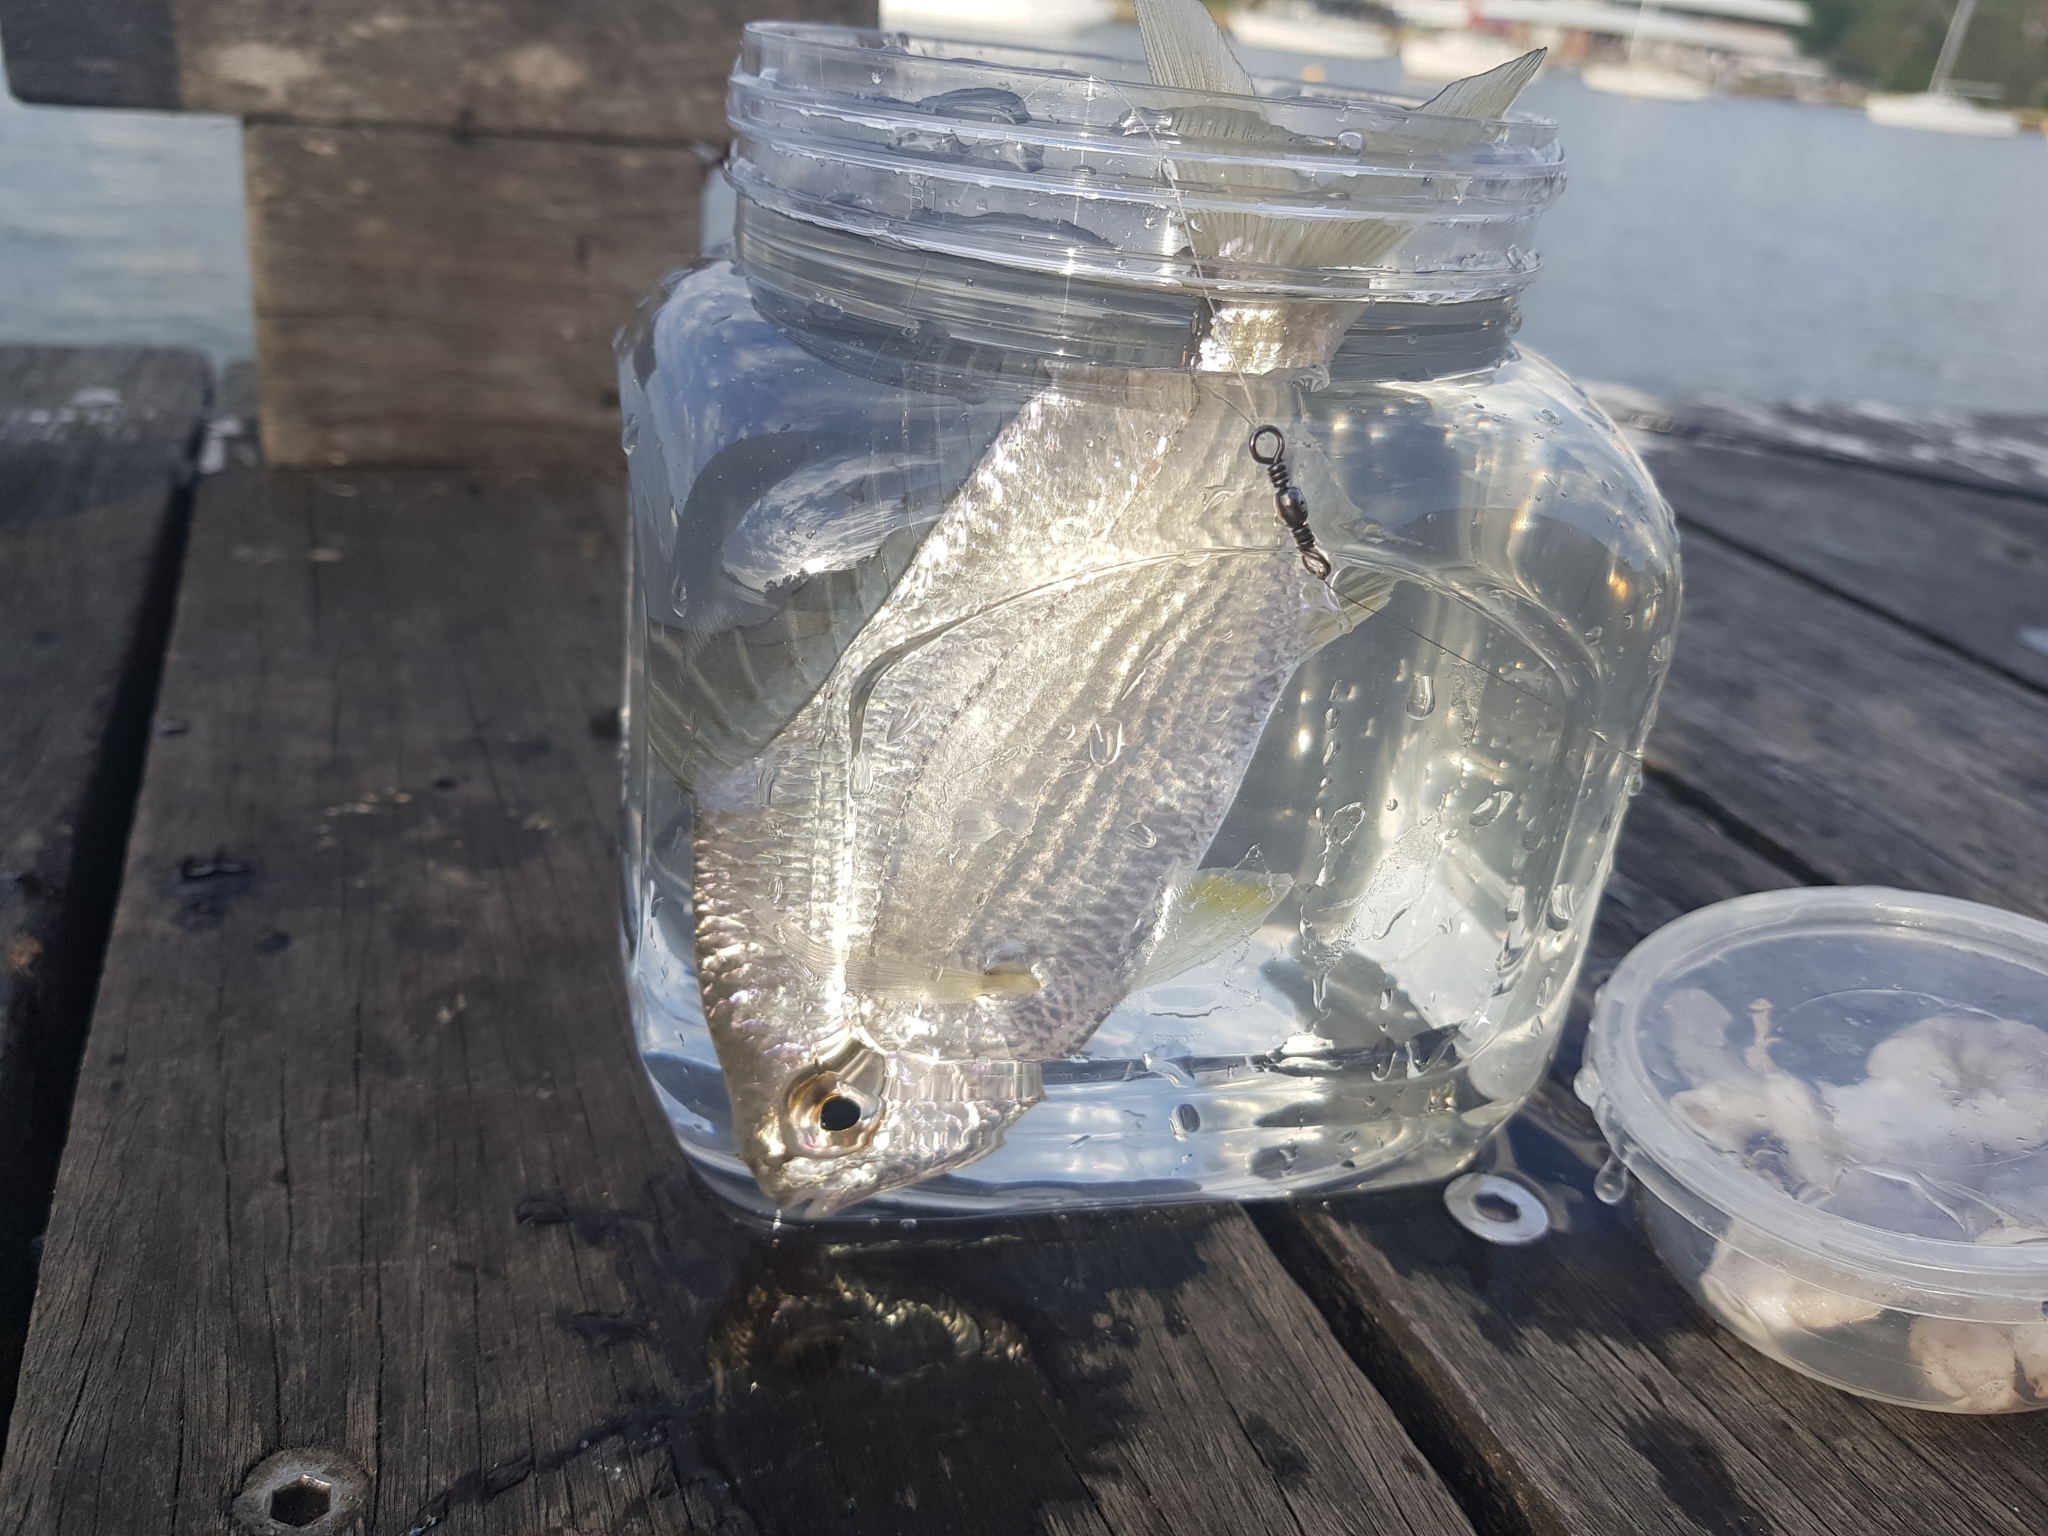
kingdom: Animalia
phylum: Chordata
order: Perciformes
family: Gerreidae
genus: Gerres
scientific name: Gerres subfasciatus
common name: Common silver belly
